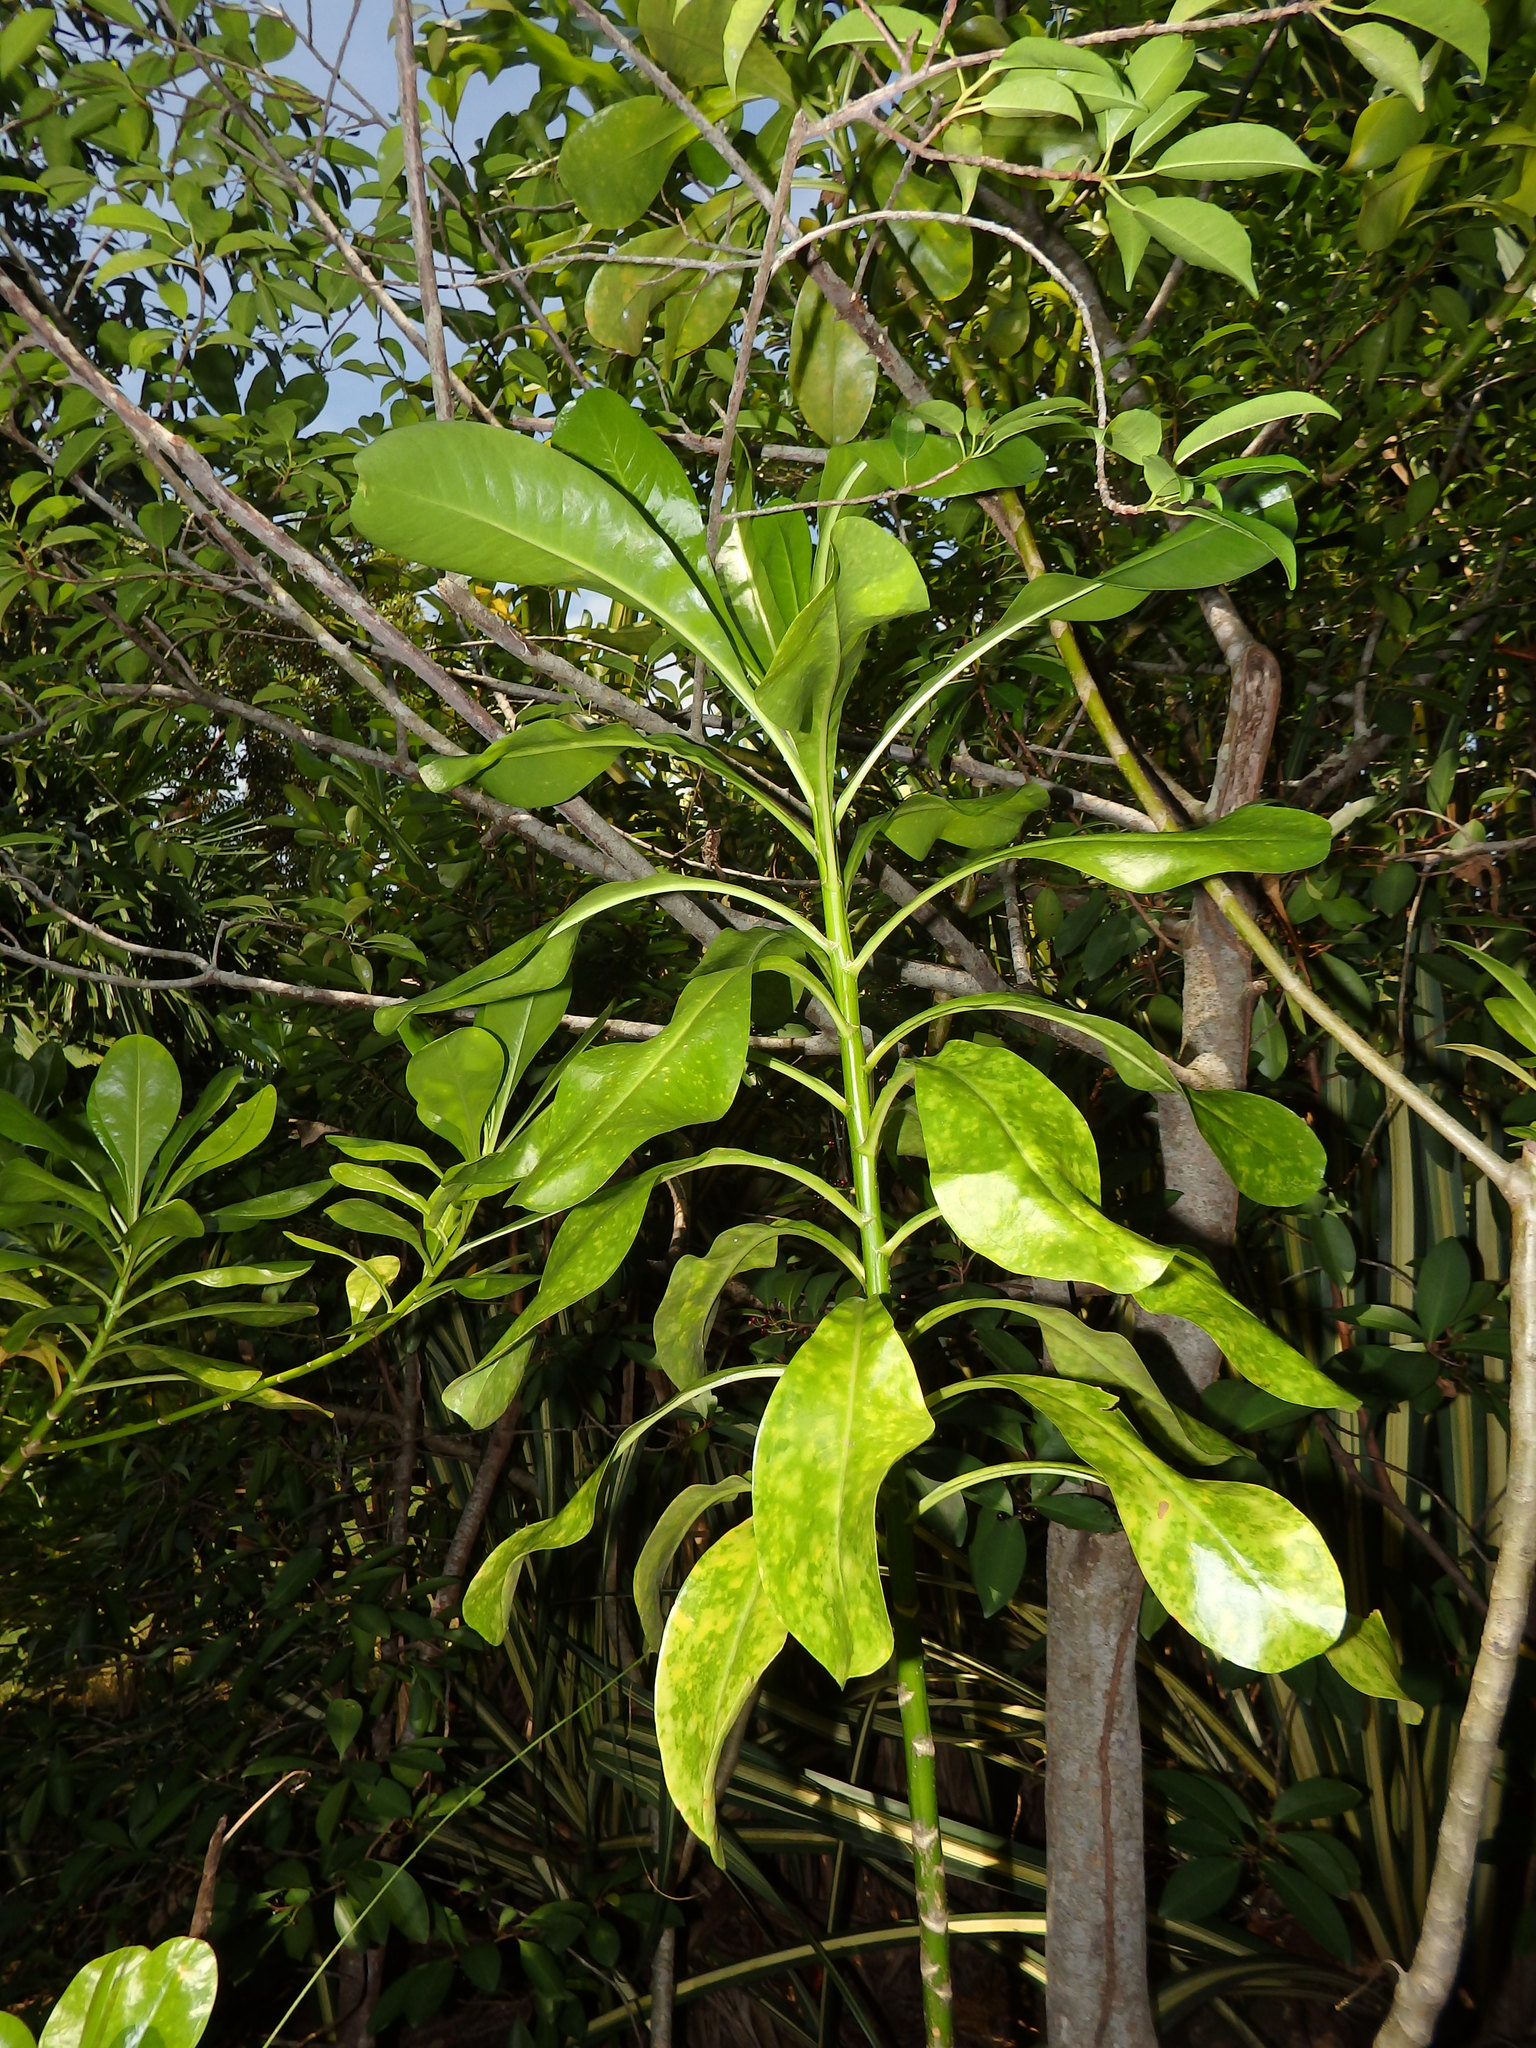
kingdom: Plantae
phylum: Tracheophyta
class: Magnoliopsida
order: Asterales
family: Goodeniaceae
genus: Scaevola
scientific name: Scaevola taccada
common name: Sea lettucetree
